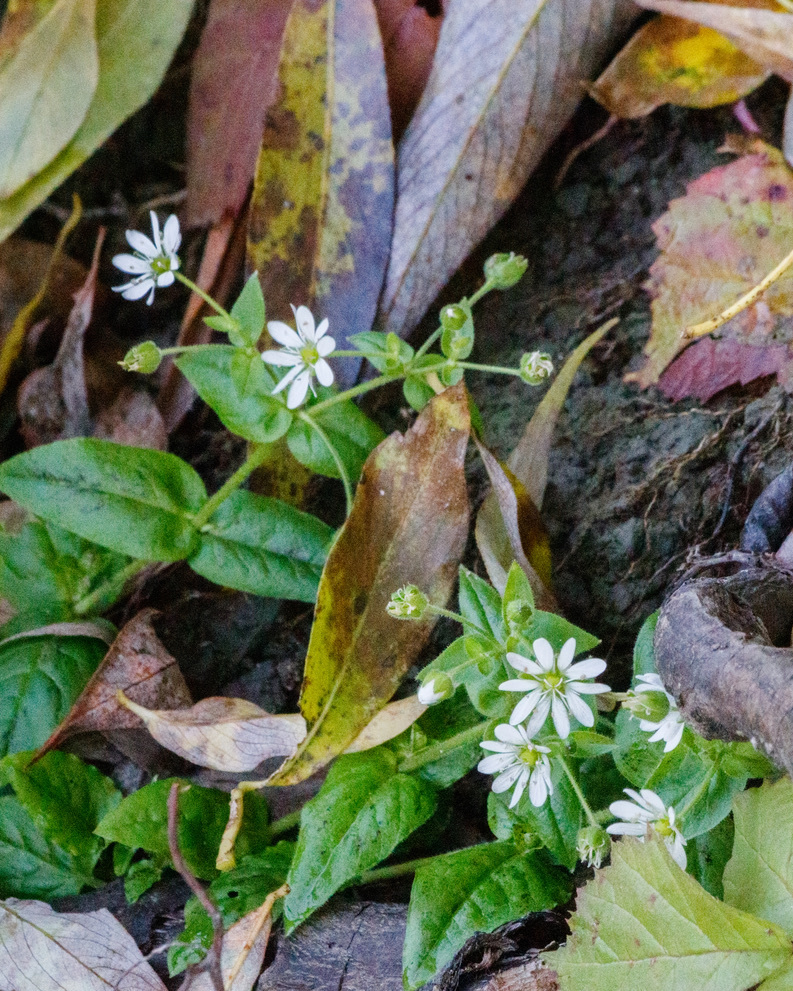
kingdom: Plantae
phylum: Tracheophyta
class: Magnoliopsida
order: Caryophyllales
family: Caryophyllaceae
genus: Stellaria
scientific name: Stellaria aquatica
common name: Water chickweed
